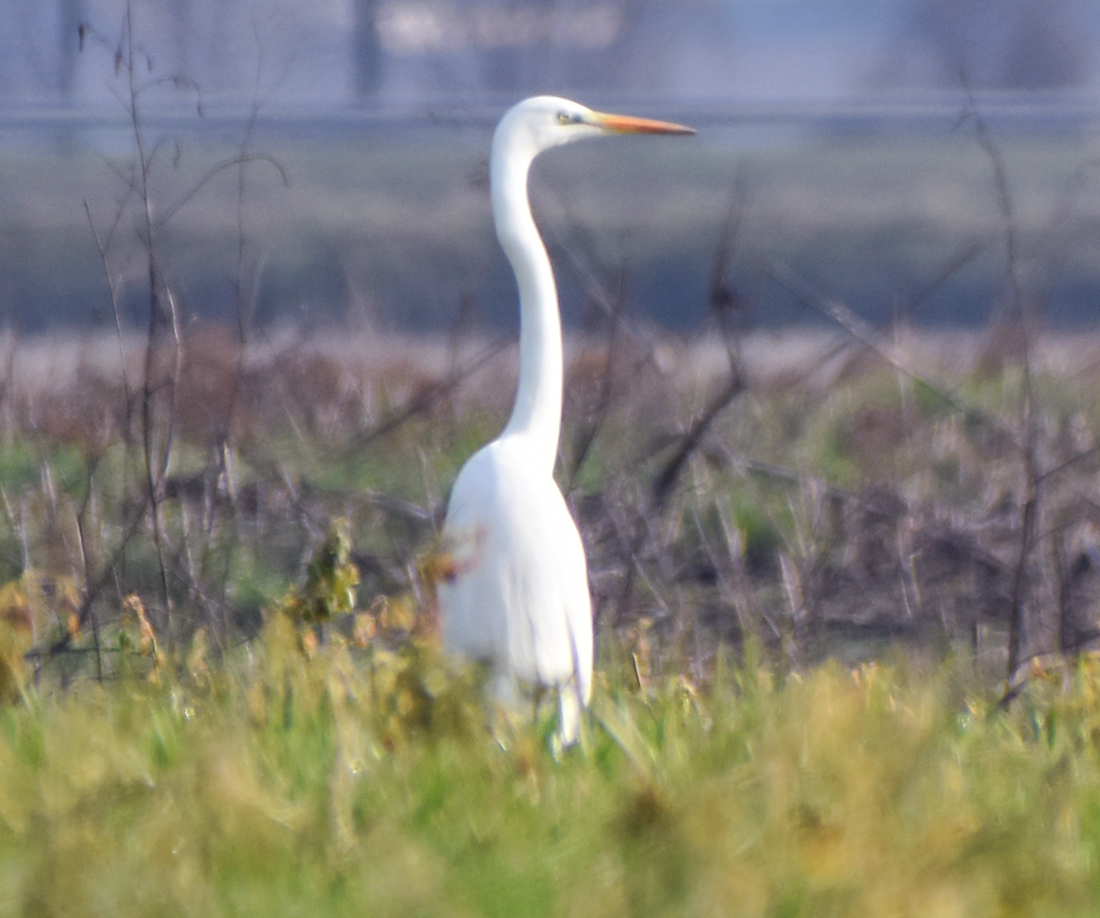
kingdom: Animalia
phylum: Chordata
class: Aves
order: Pelecaniformes
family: Ardeidae
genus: Ardea
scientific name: Ardea alba
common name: Great egret
